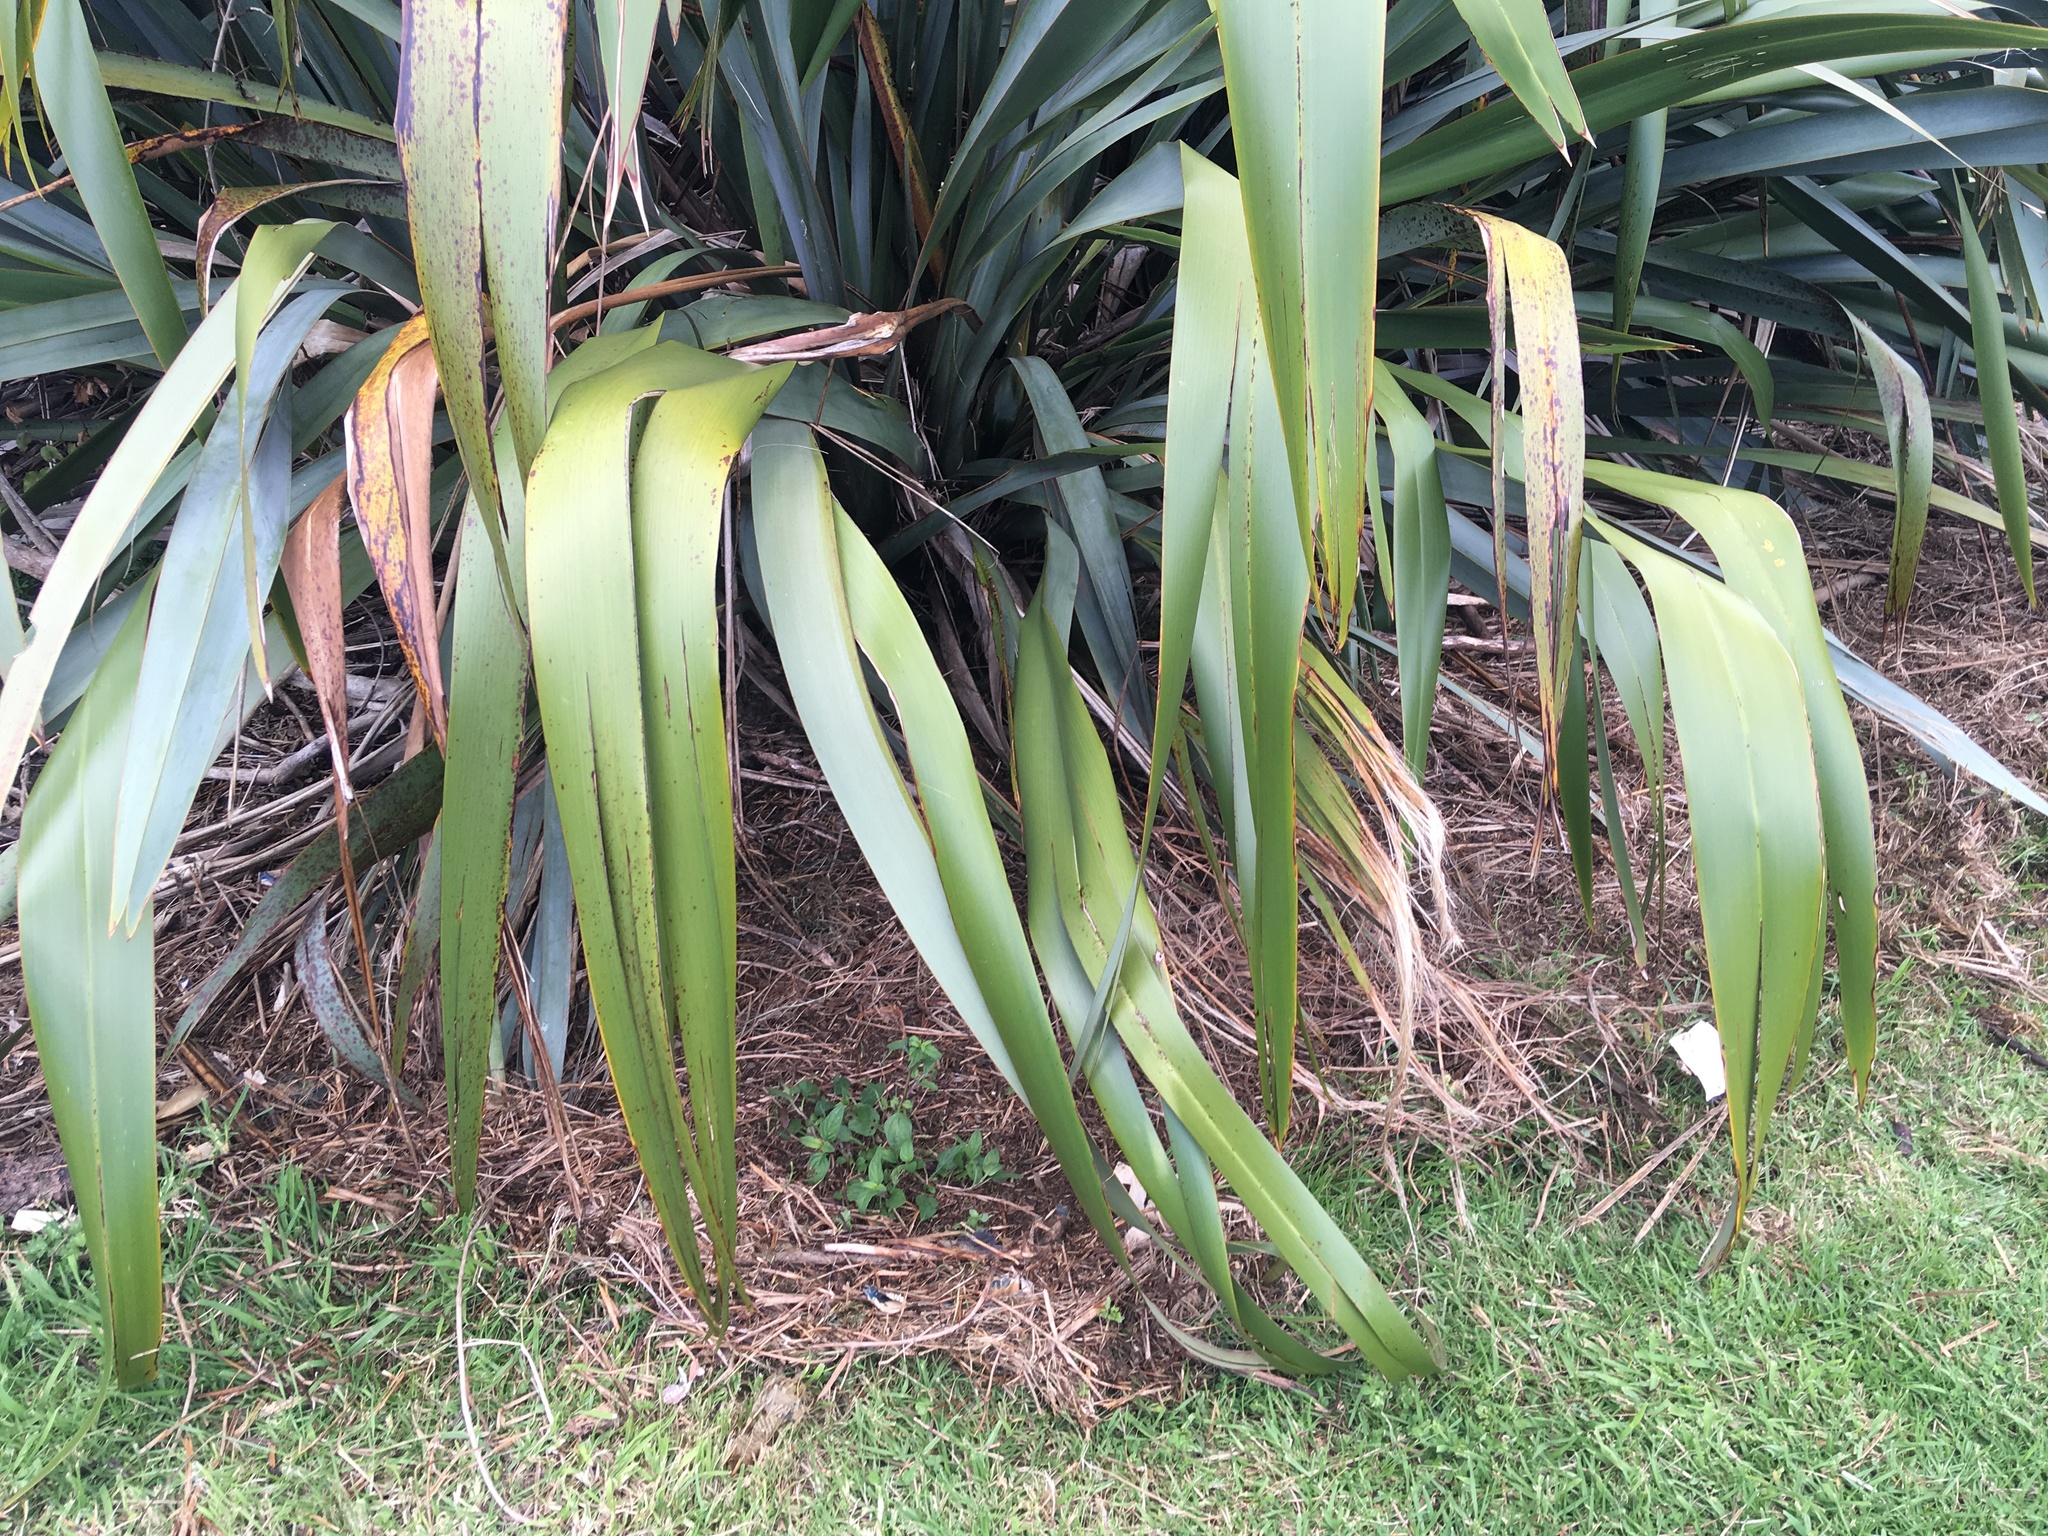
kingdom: Plantae
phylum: Tracheophyta
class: Magnoliopsida
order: Lamiales
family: Lamiaceae
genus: Prunella
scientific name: Prunella vulgaris
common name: Heal-all
